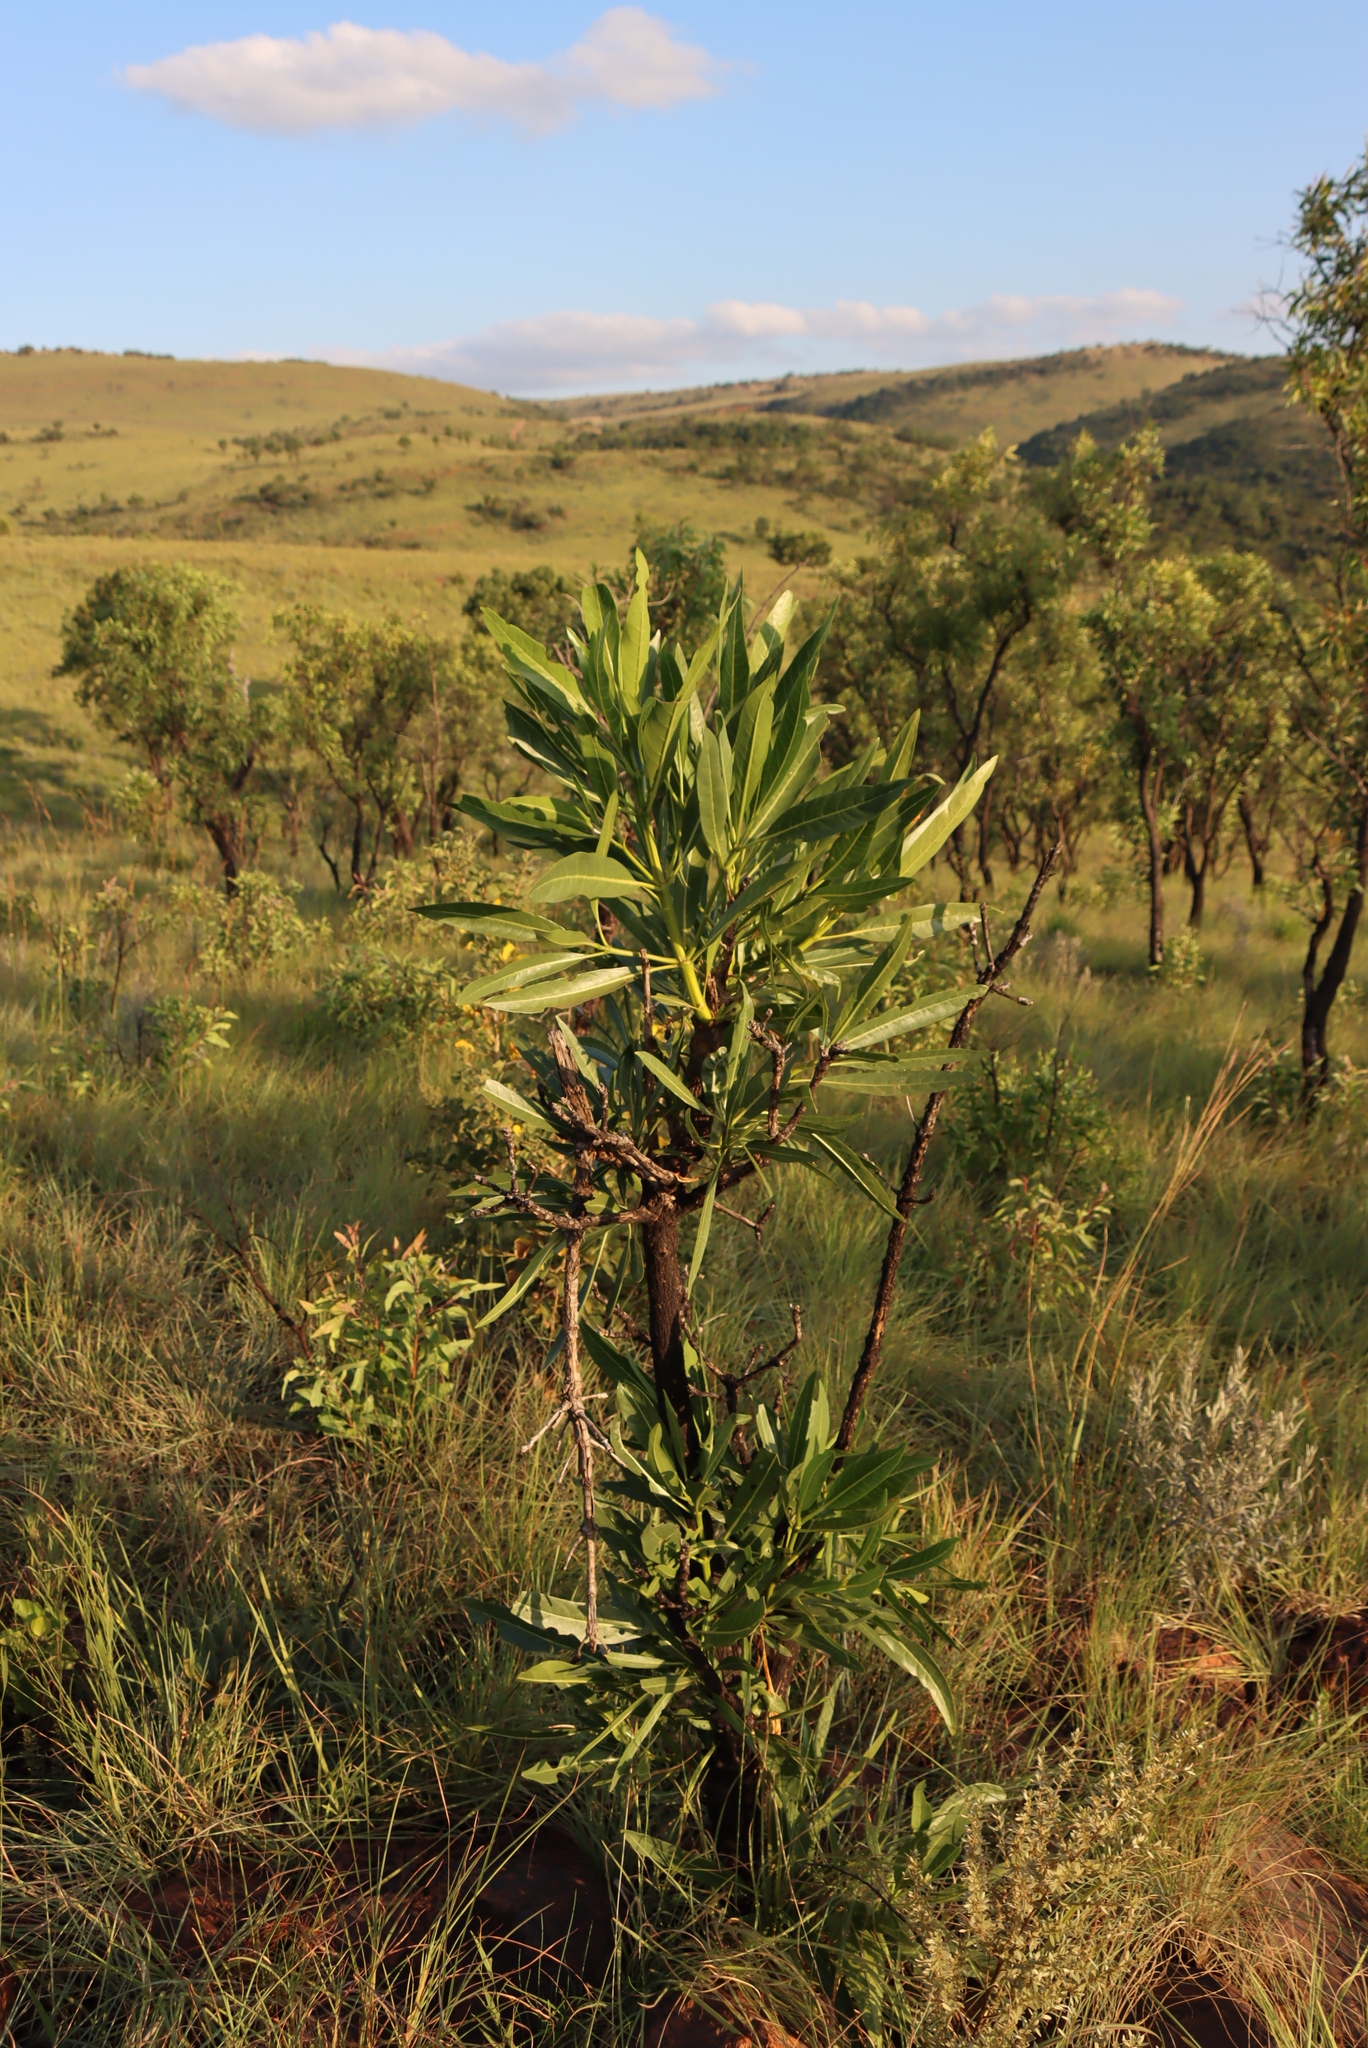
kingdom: Plantae
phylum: Tracheophyta
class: Magnoliopsida
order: Gentianales
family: Rubiaceae
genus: Pavetta
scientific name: Pavetta edentula
